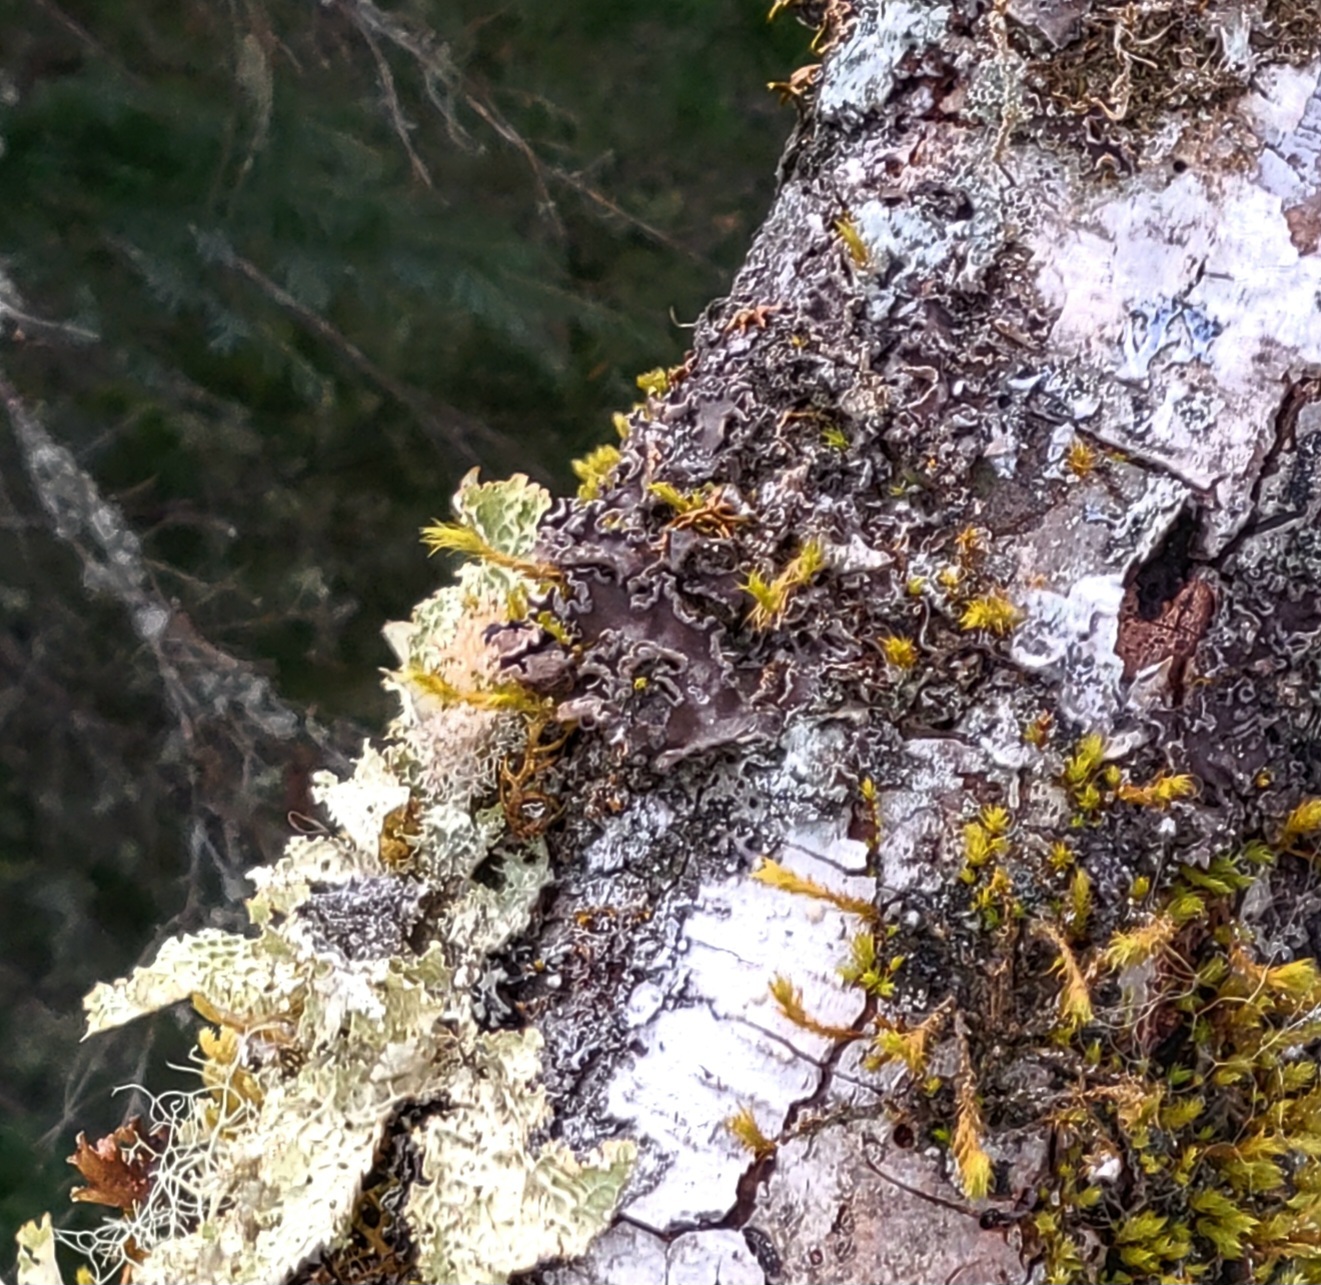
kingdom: Fungi
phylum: Ascomycota
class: Lecanoromycetes
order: Peltigerales
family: Peltigeraceae
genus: Peltigera
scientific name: Peltigera collina
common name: Gritty tree pelt lichen
